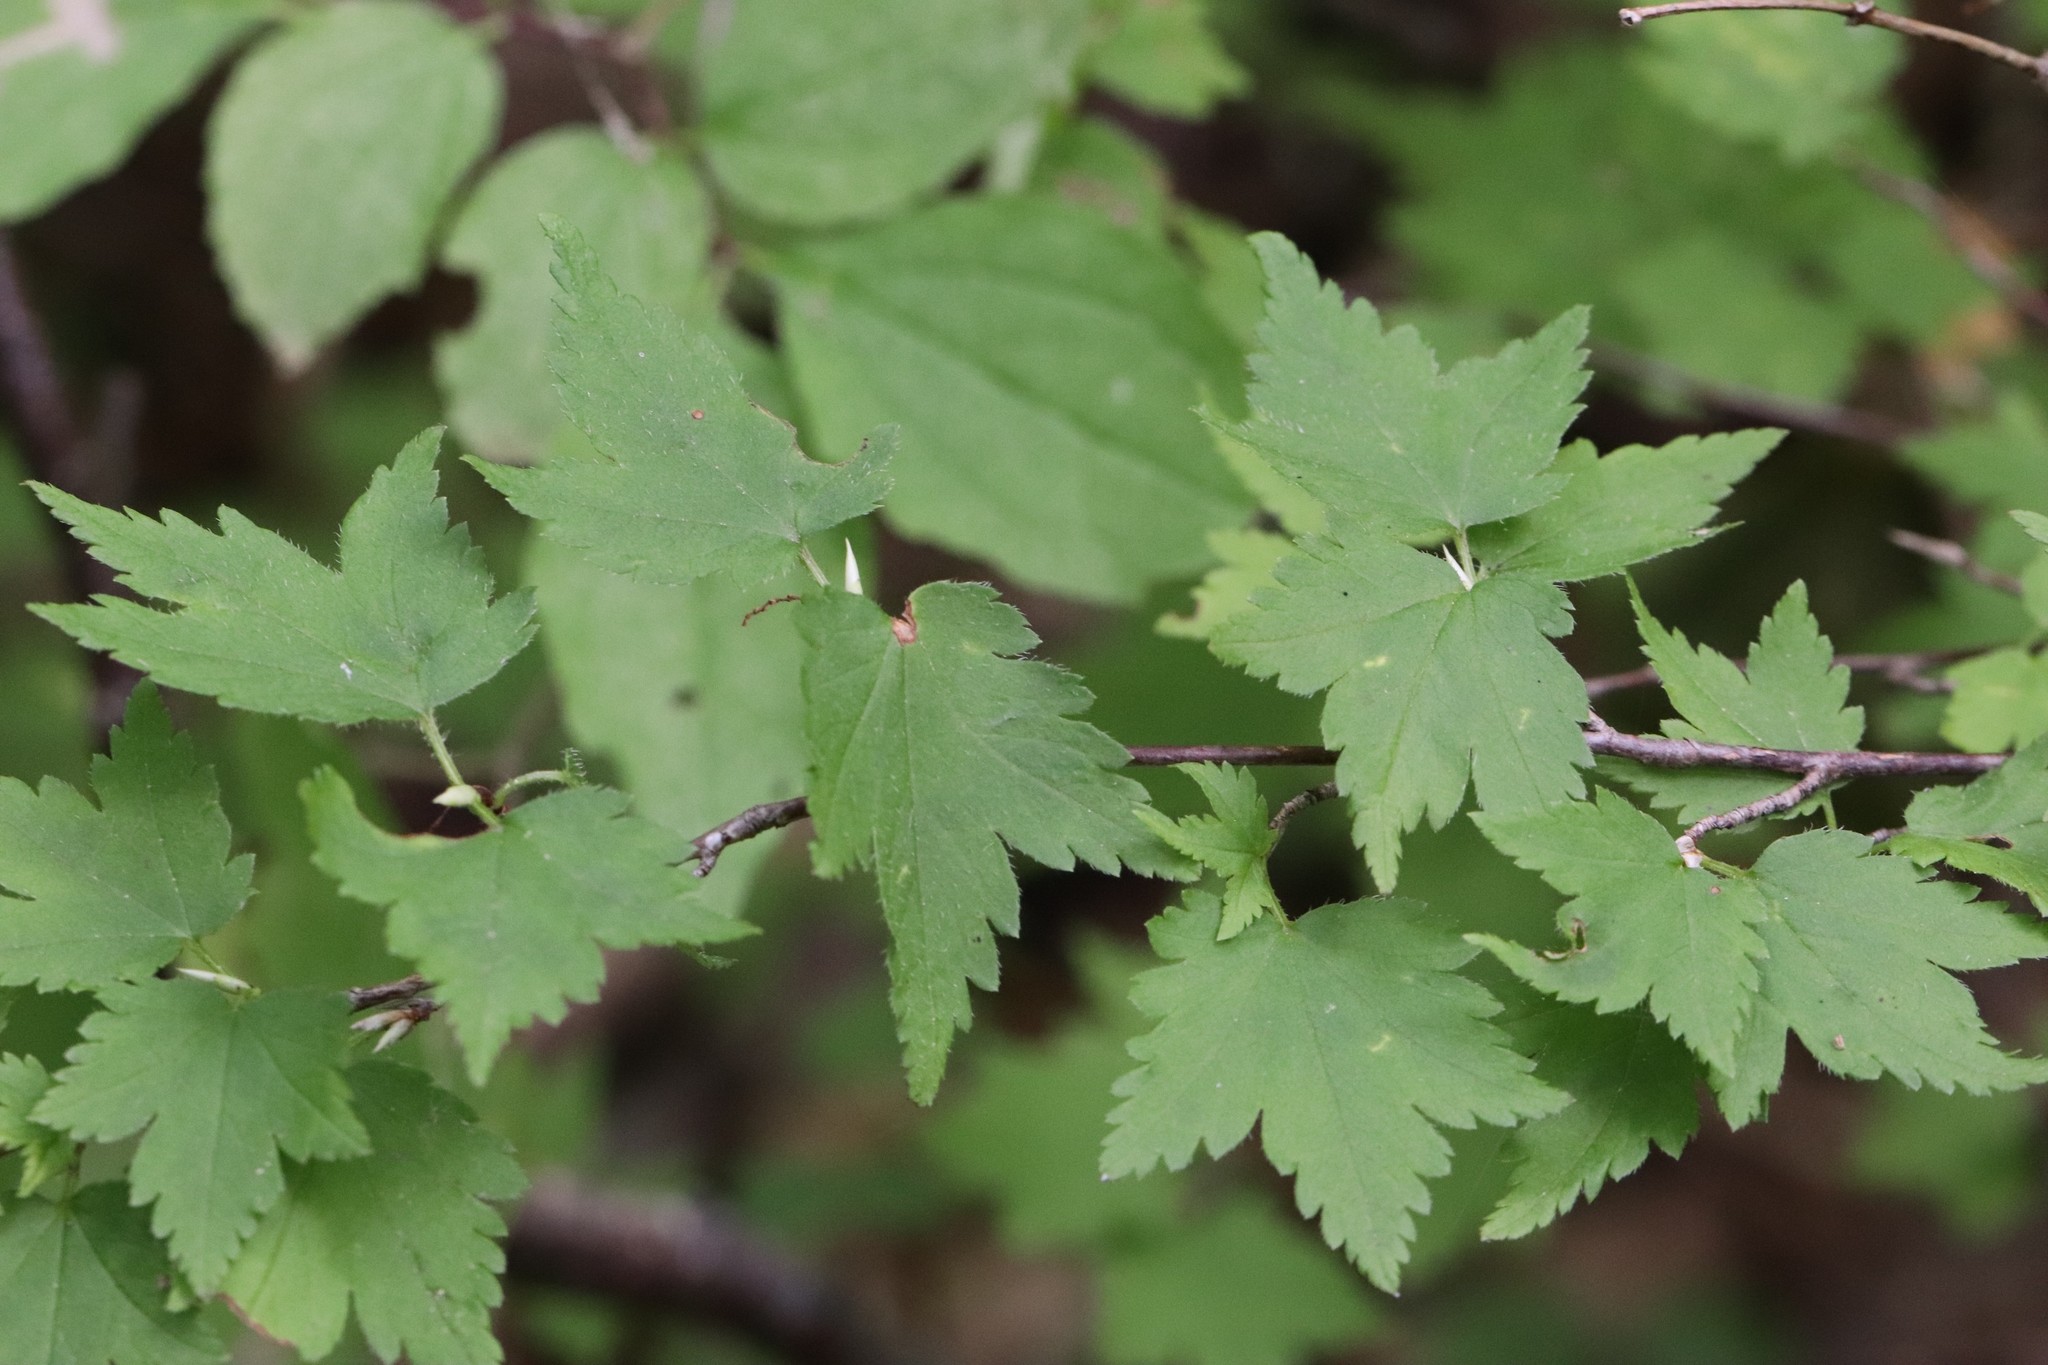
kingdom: Plantae
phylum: Tracheophyta
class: Magnoliopsida
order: Saxifragales
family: Grossulariaceae
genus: Ribes
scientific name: Ribes maximoviczianum
